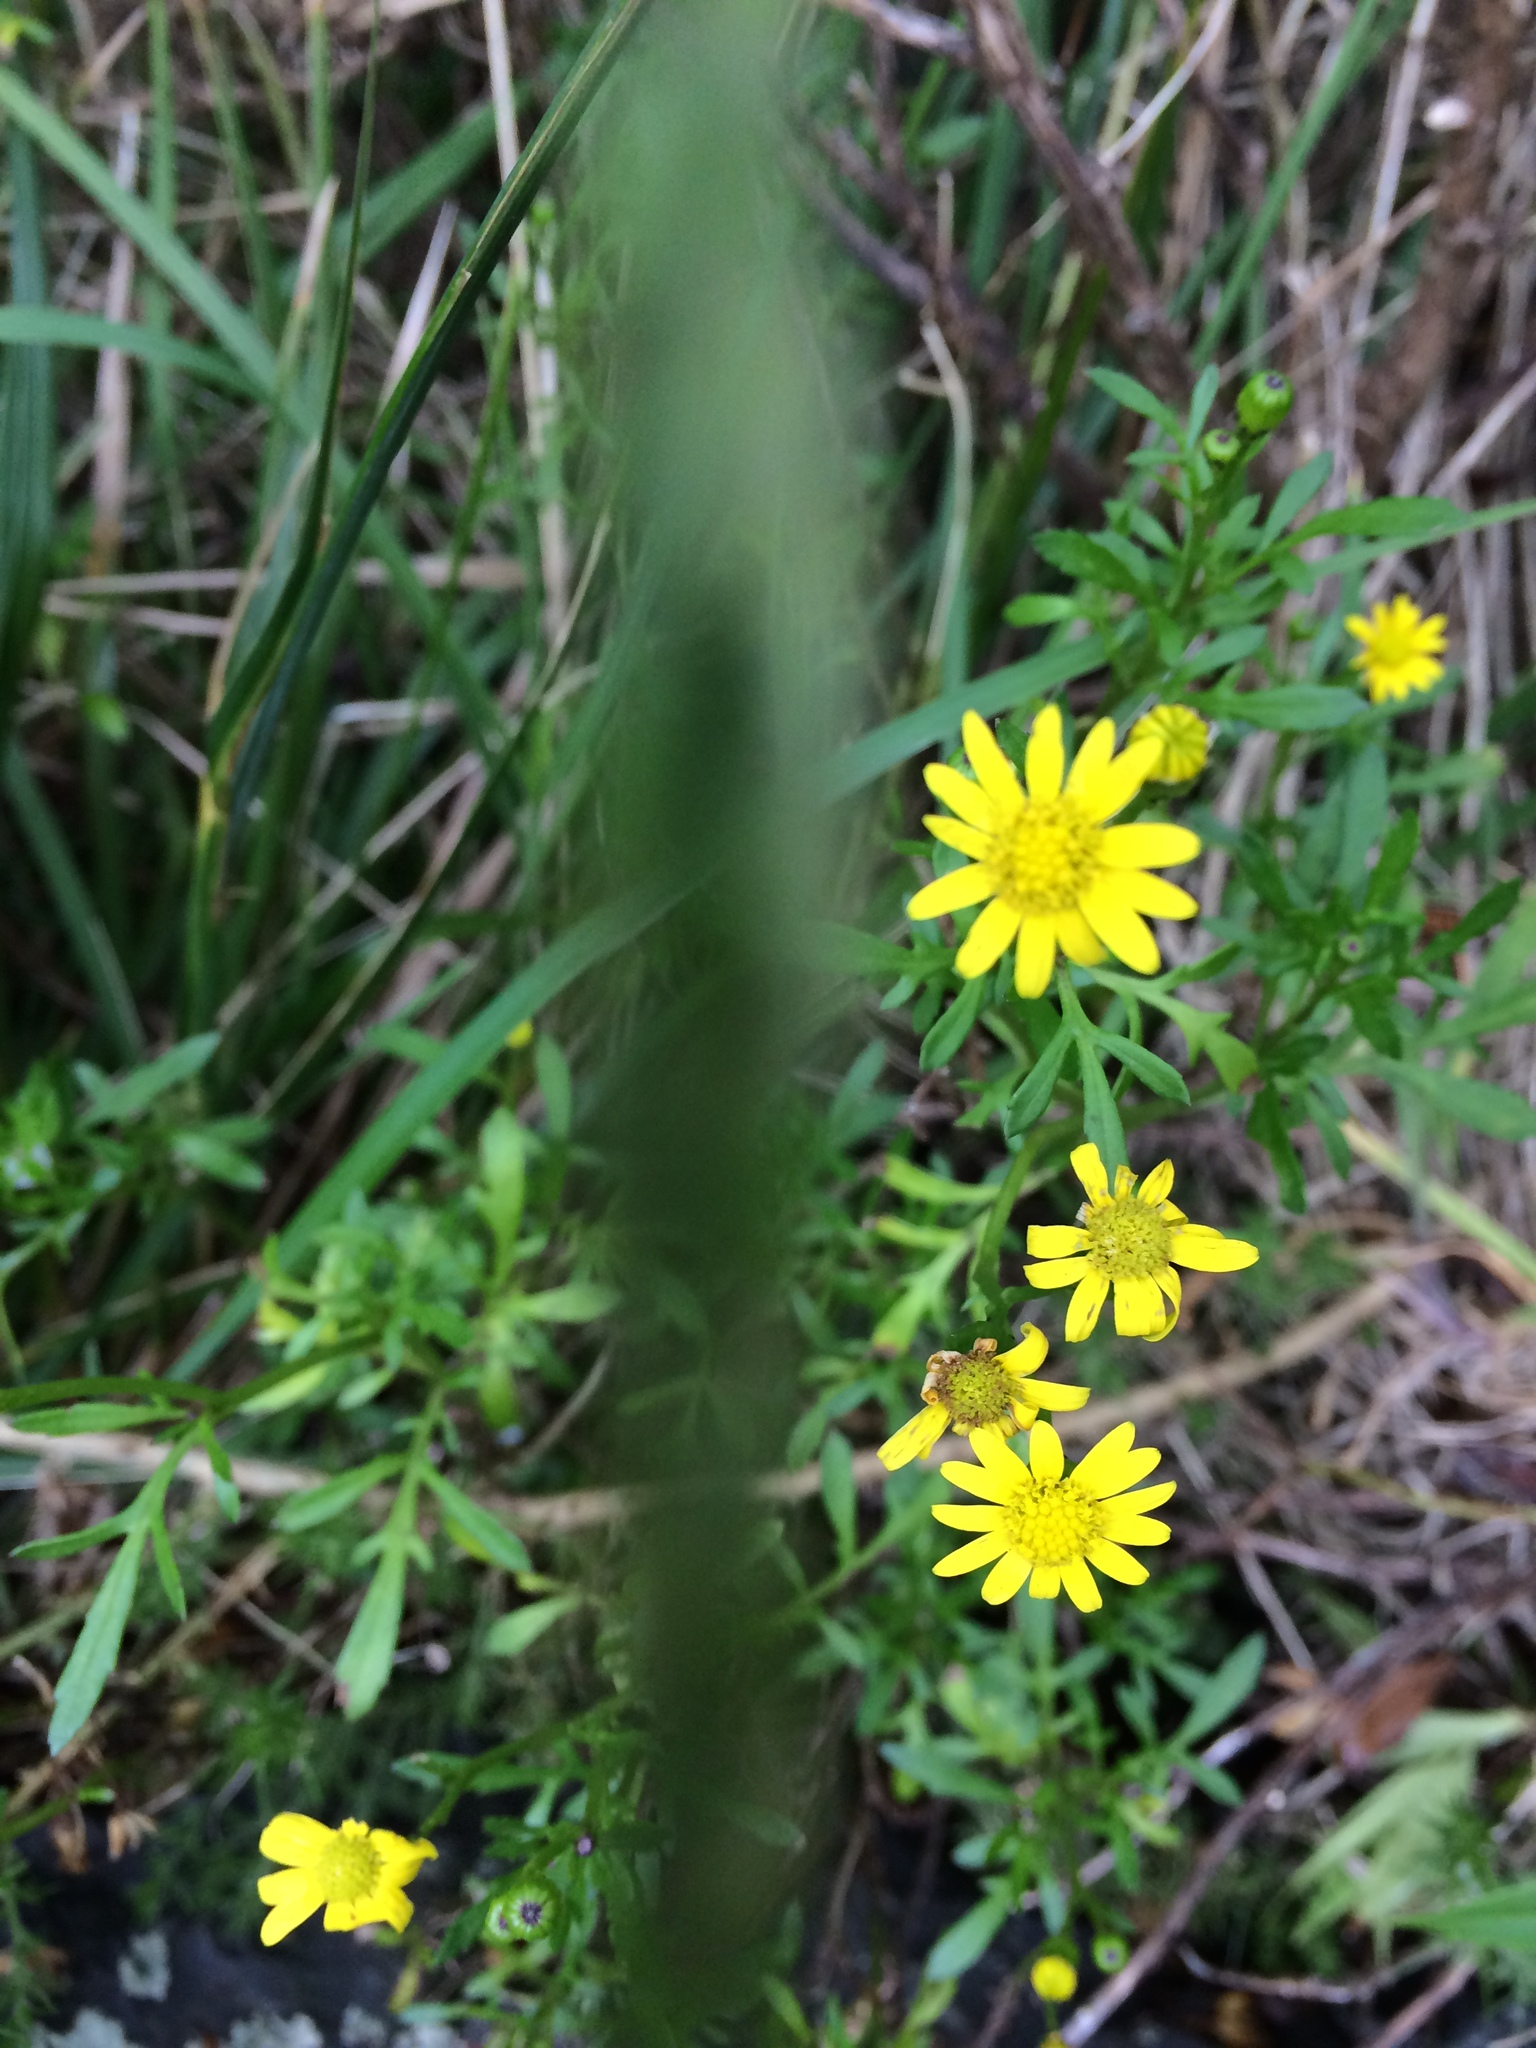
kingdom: Plantae
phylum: Tracheophyta
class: Magnoliopsida
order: Asterales
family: Asteraceae
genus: Senecio
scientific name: Senecio skirrhodon
